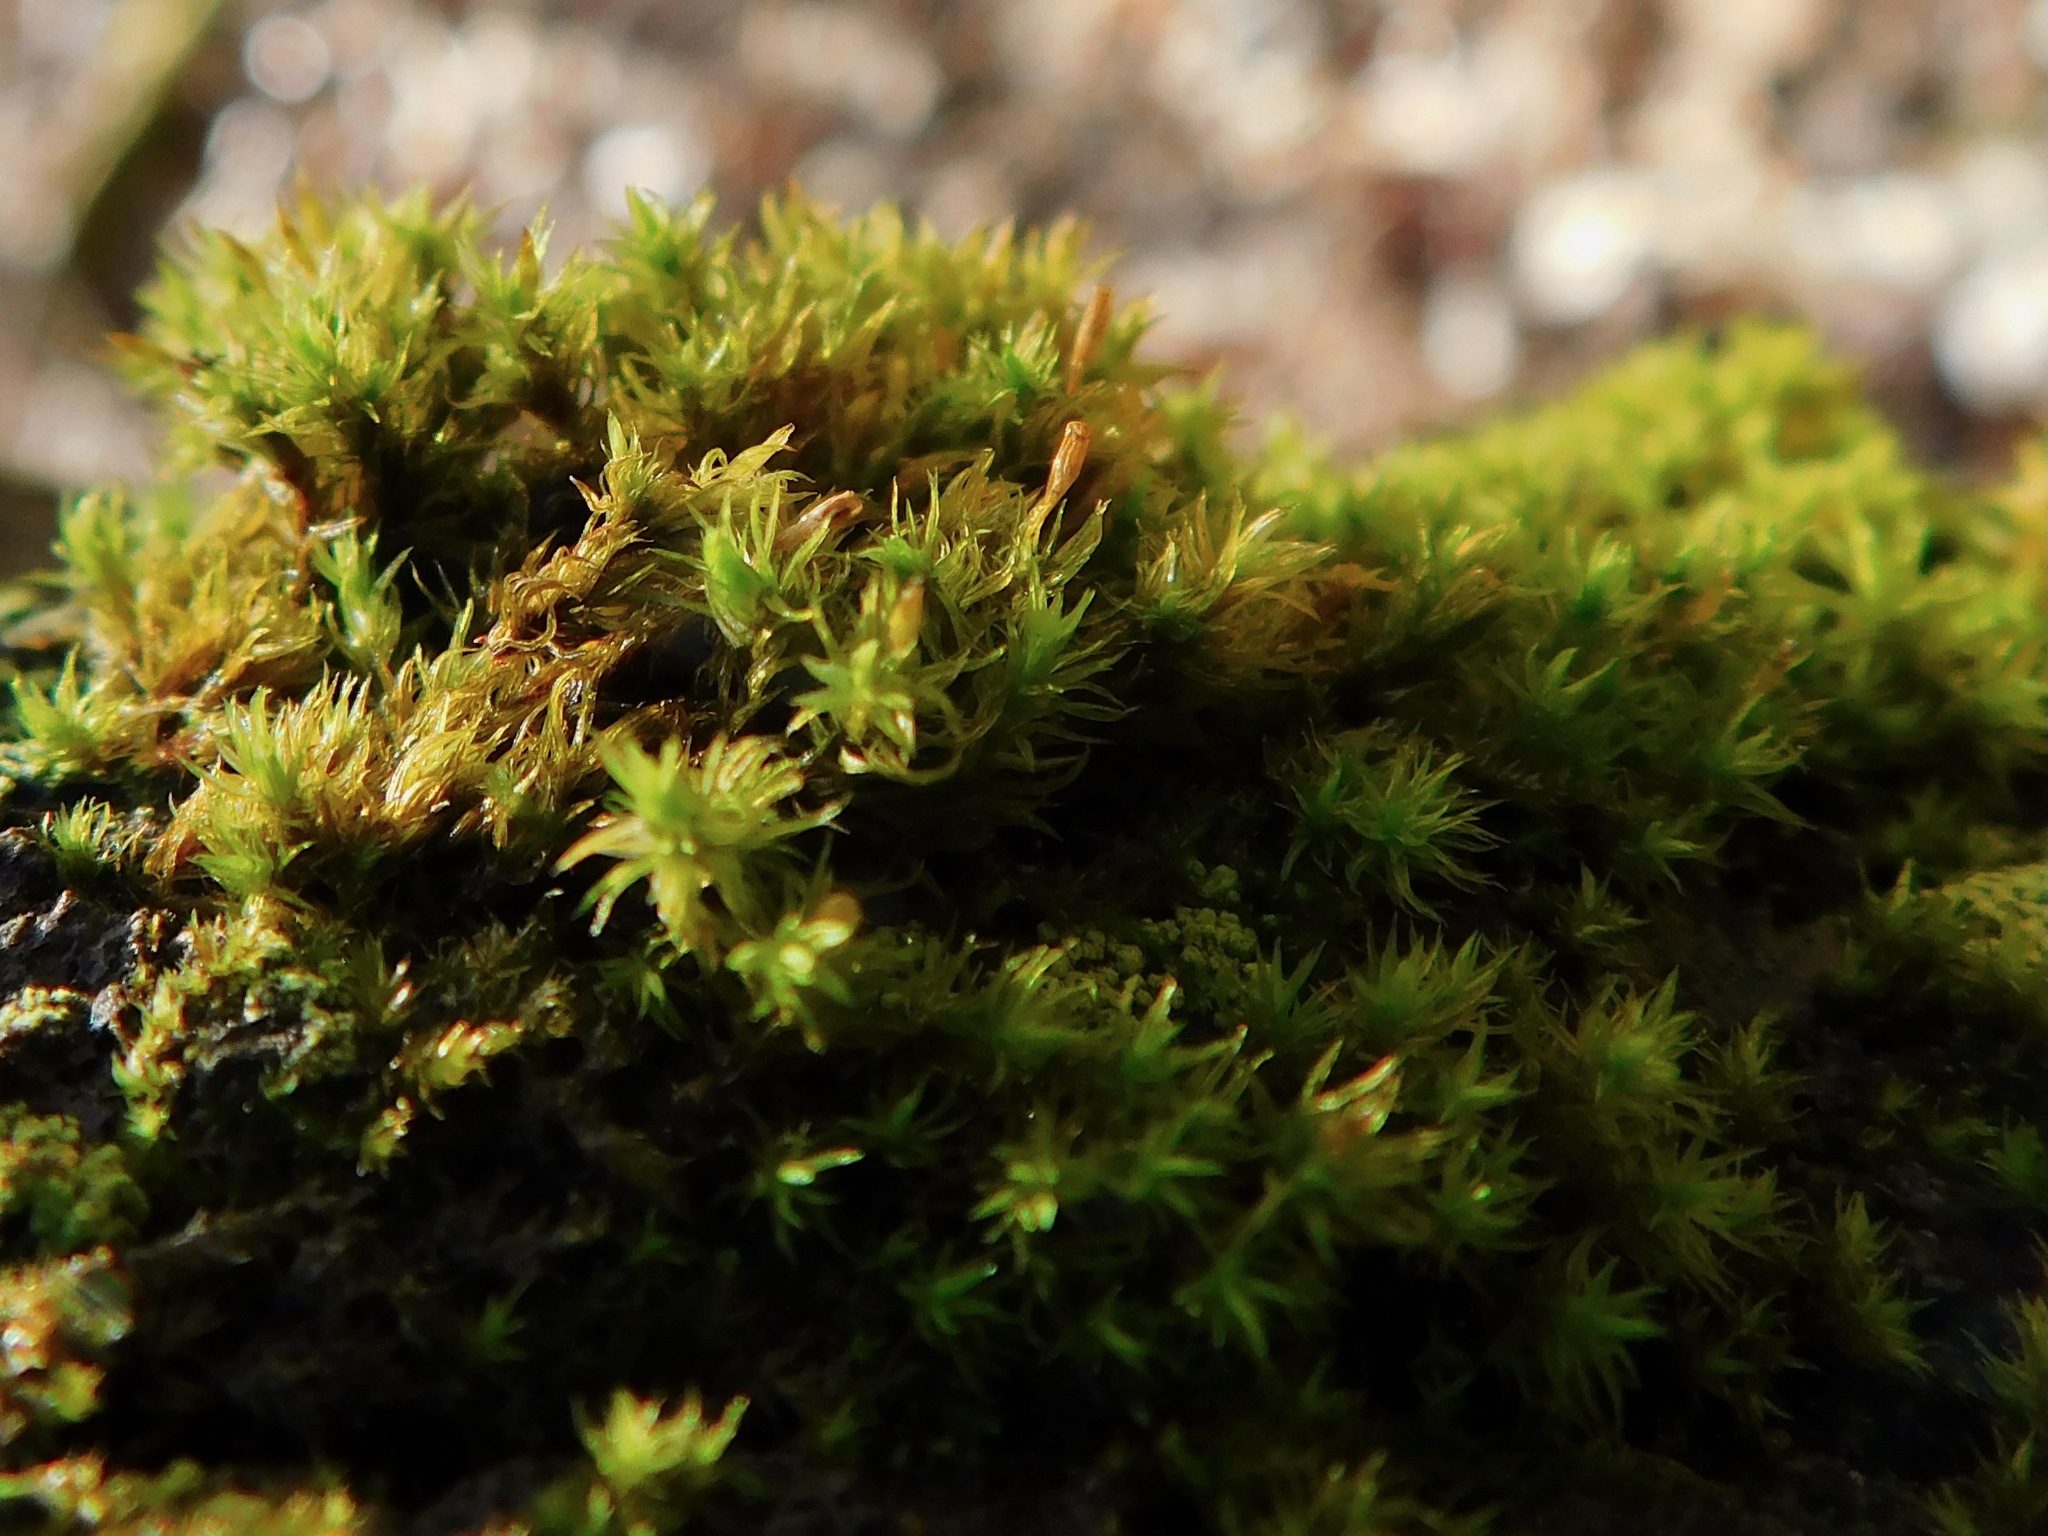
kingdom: Plantae
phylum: Bryophyta
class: Bryopsida
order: Orthotrichales
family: Orthotrichaceae
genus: Orthotrichum
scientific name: Orthotrichum anomalum
